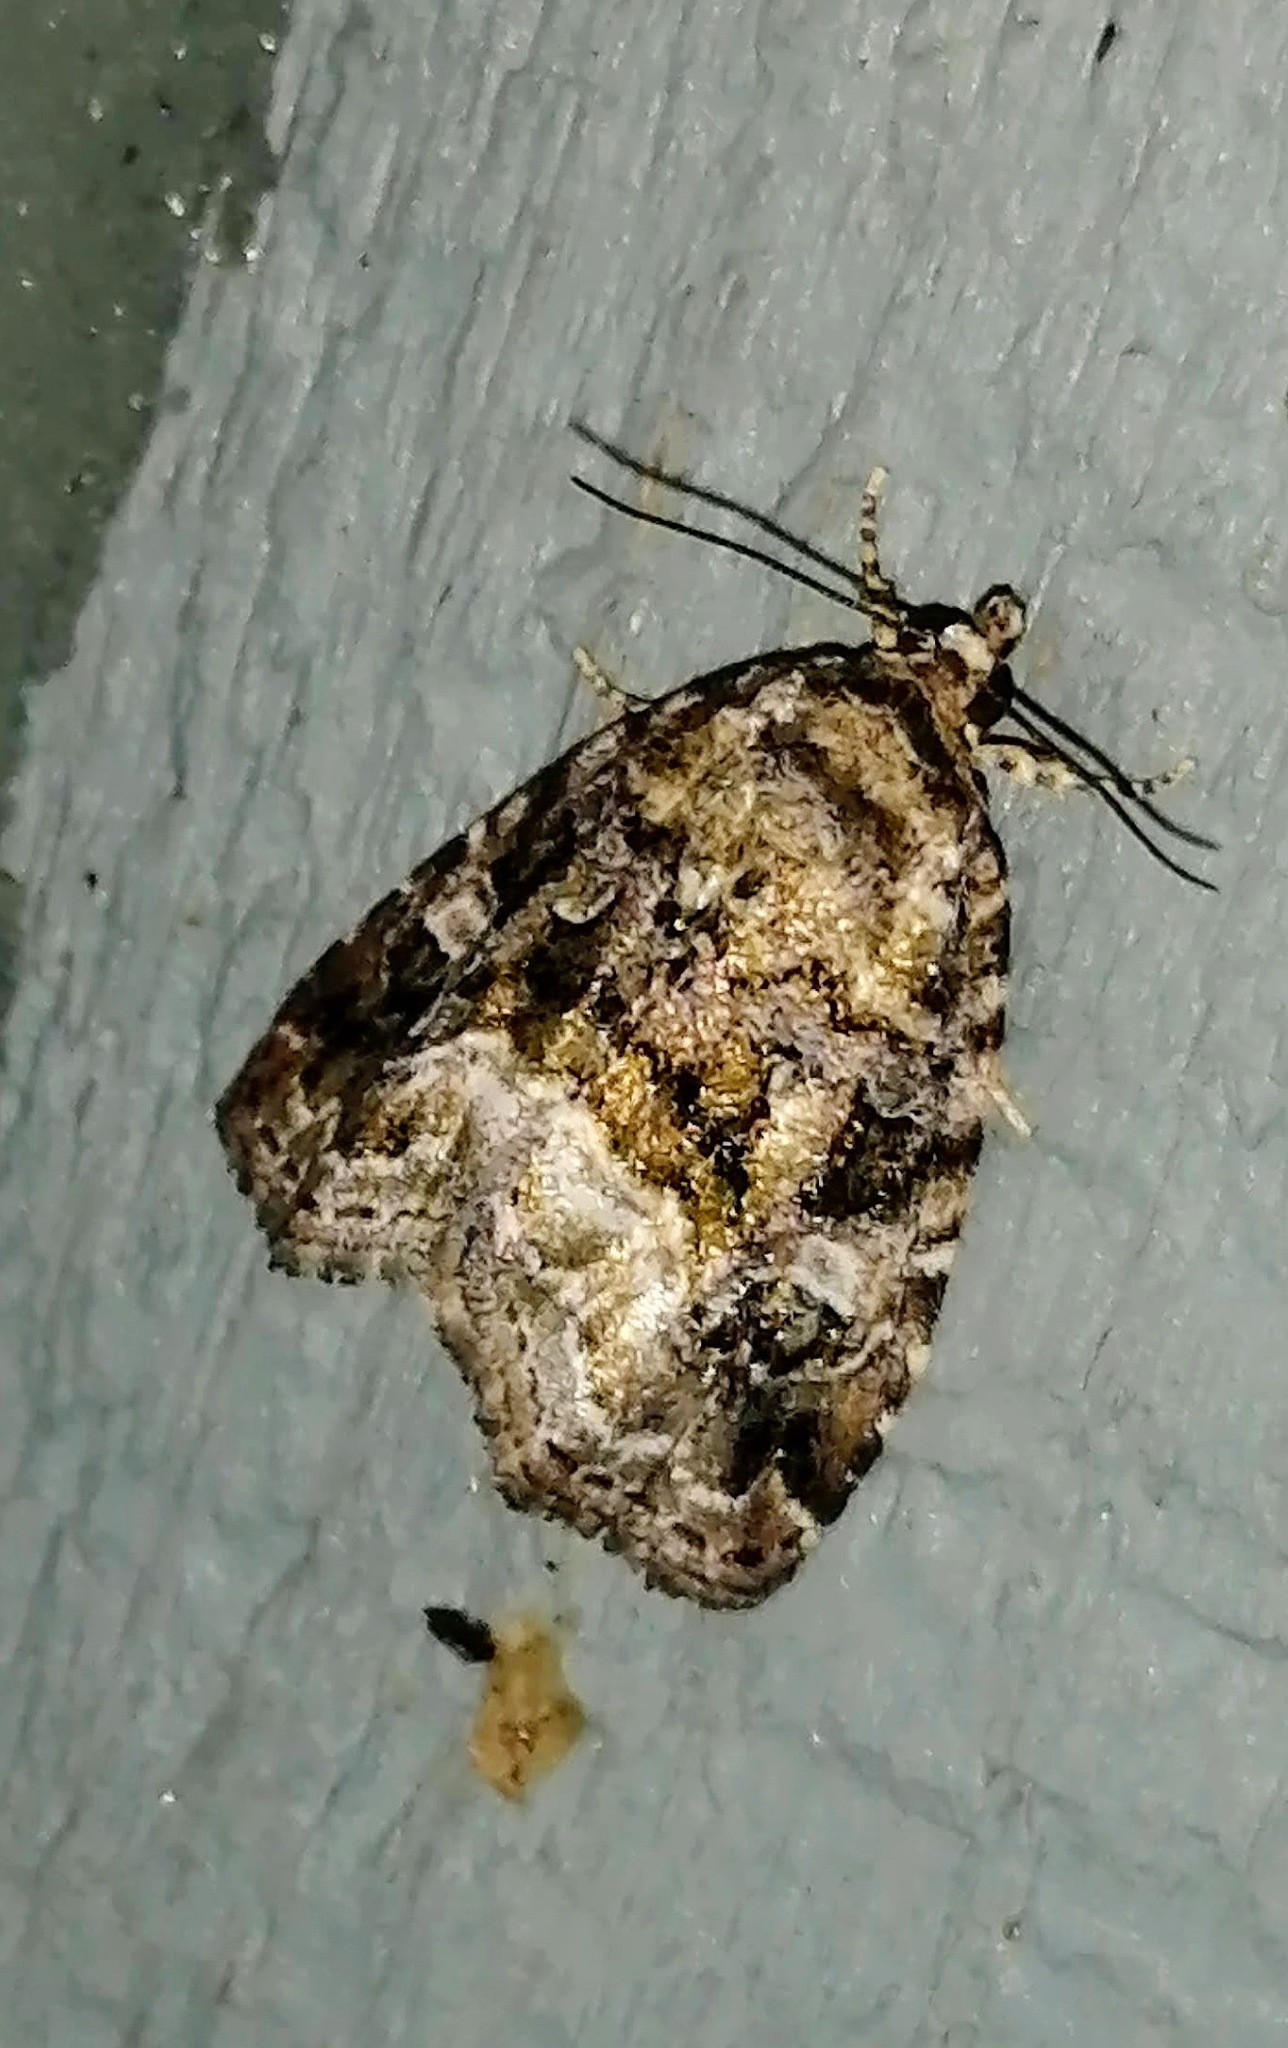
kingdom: Animalia
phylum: Arthropoda
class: Insecta
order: Lepidoptera
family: Noctuidae
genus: Protodeltote
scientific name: Protodeltote muscosula
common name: Large mossy glyph
